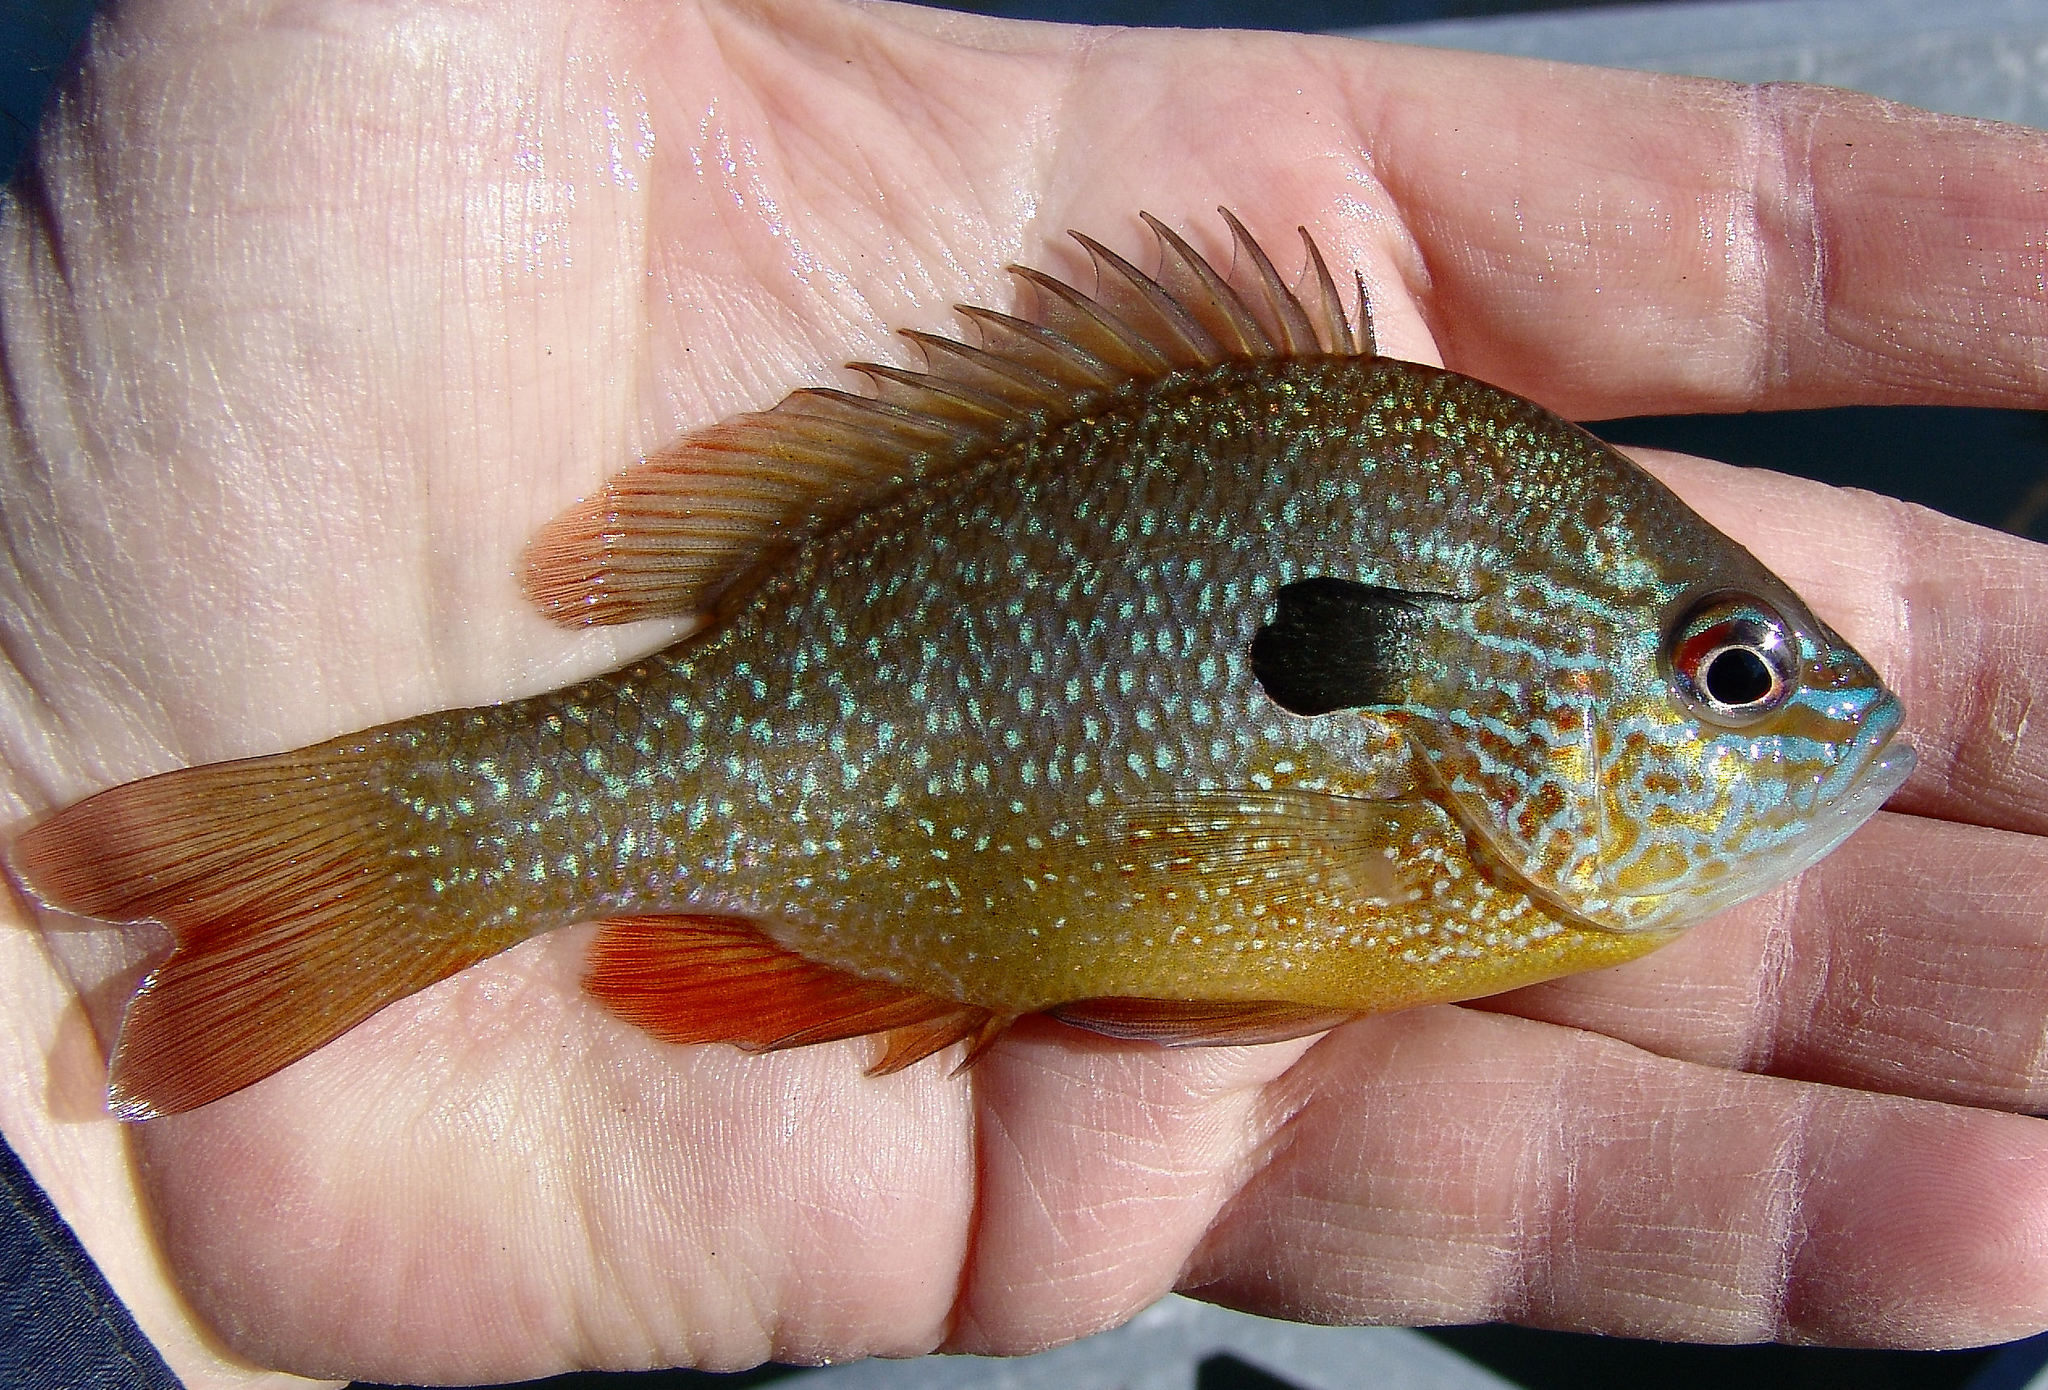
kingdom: Animalia
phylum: Chordata
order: Perciformes
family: Centrarchidae
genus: Lepomis
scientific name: Lepomis megalotis
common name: Longear sunfish
